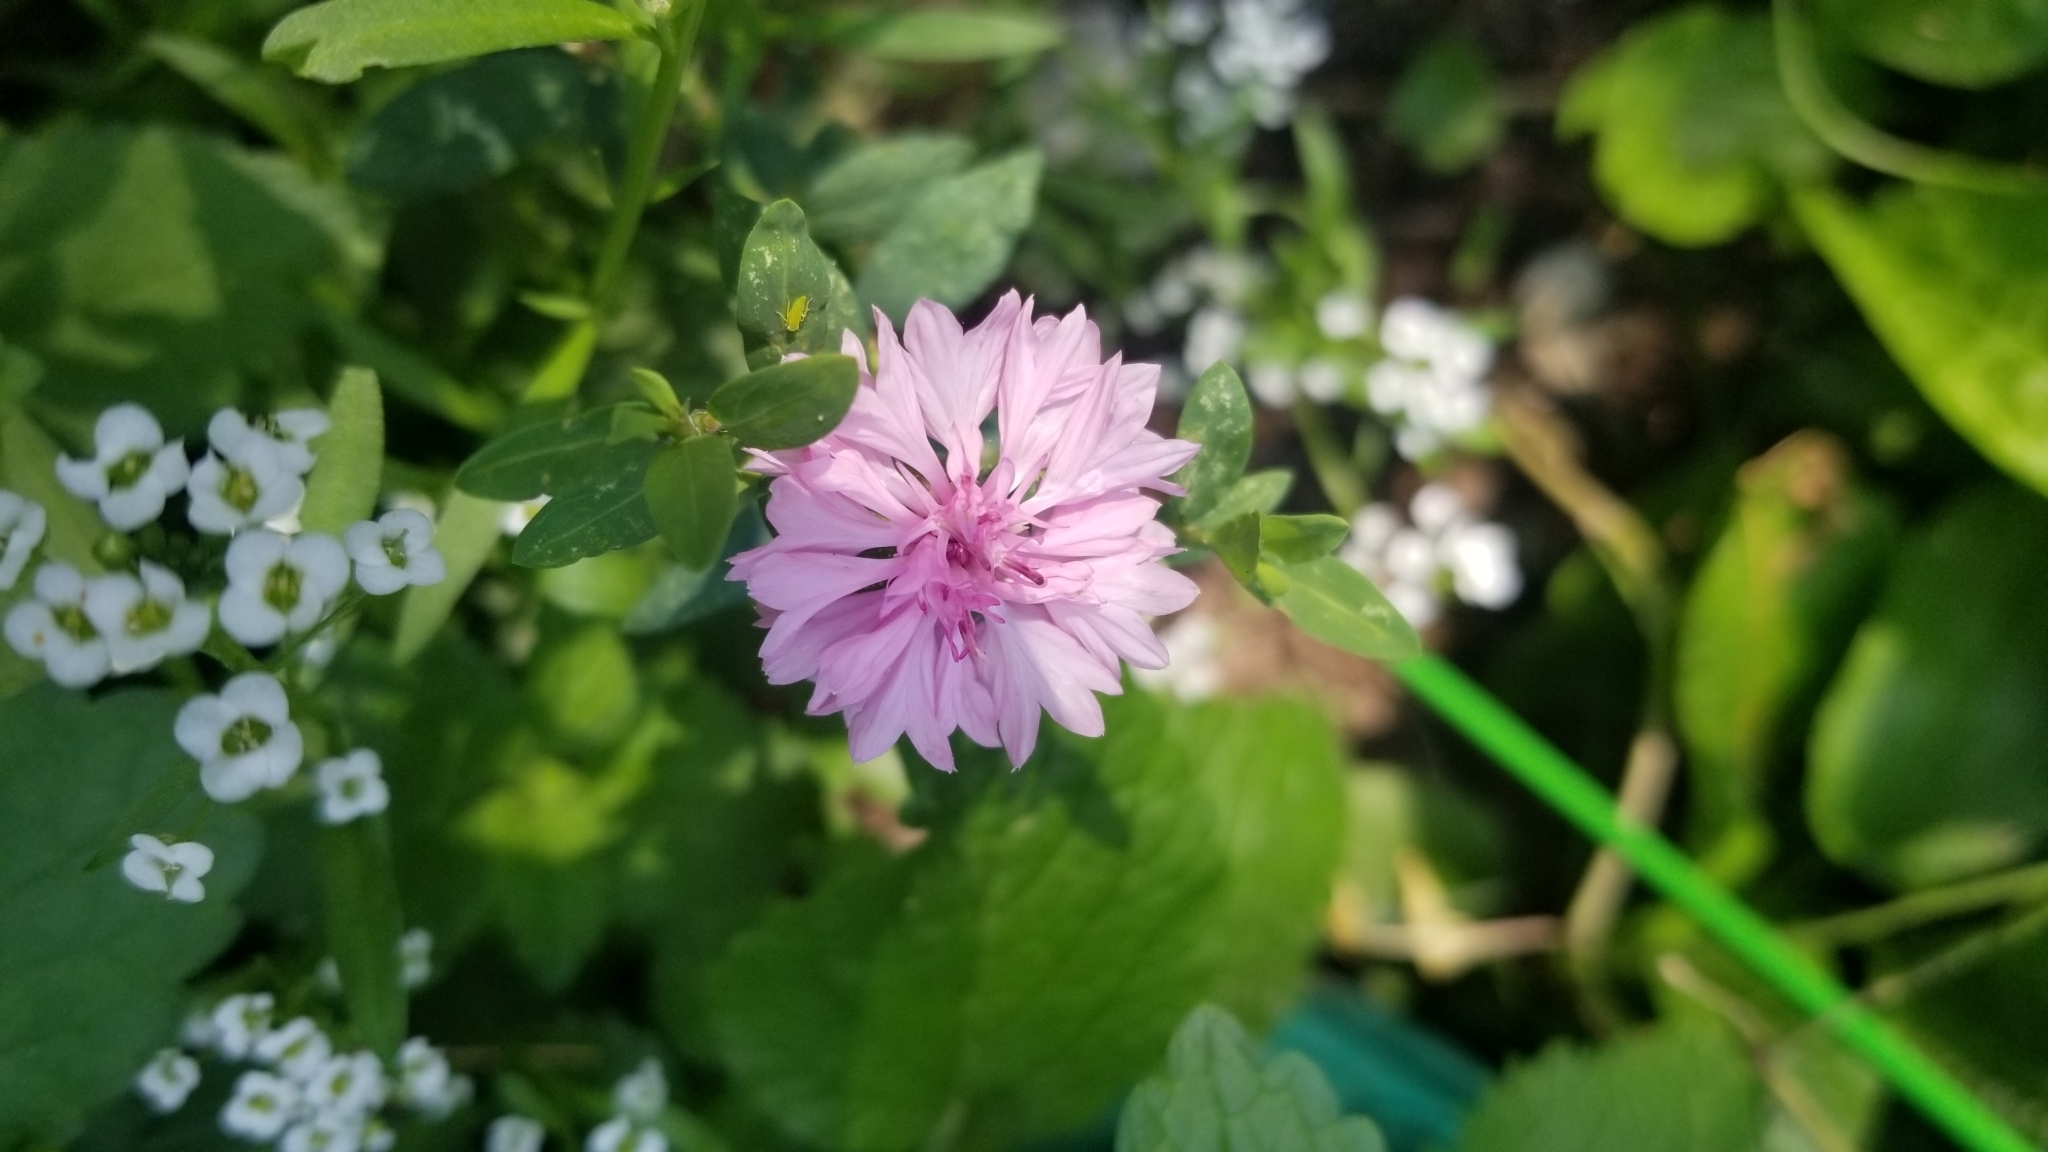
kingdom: Plantae
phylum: Tracheophyta
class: Magnoliopsida
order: Asterales
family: Asteraceae
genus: Centaurea
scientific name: Centaurea cyanus
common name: Cornflower
